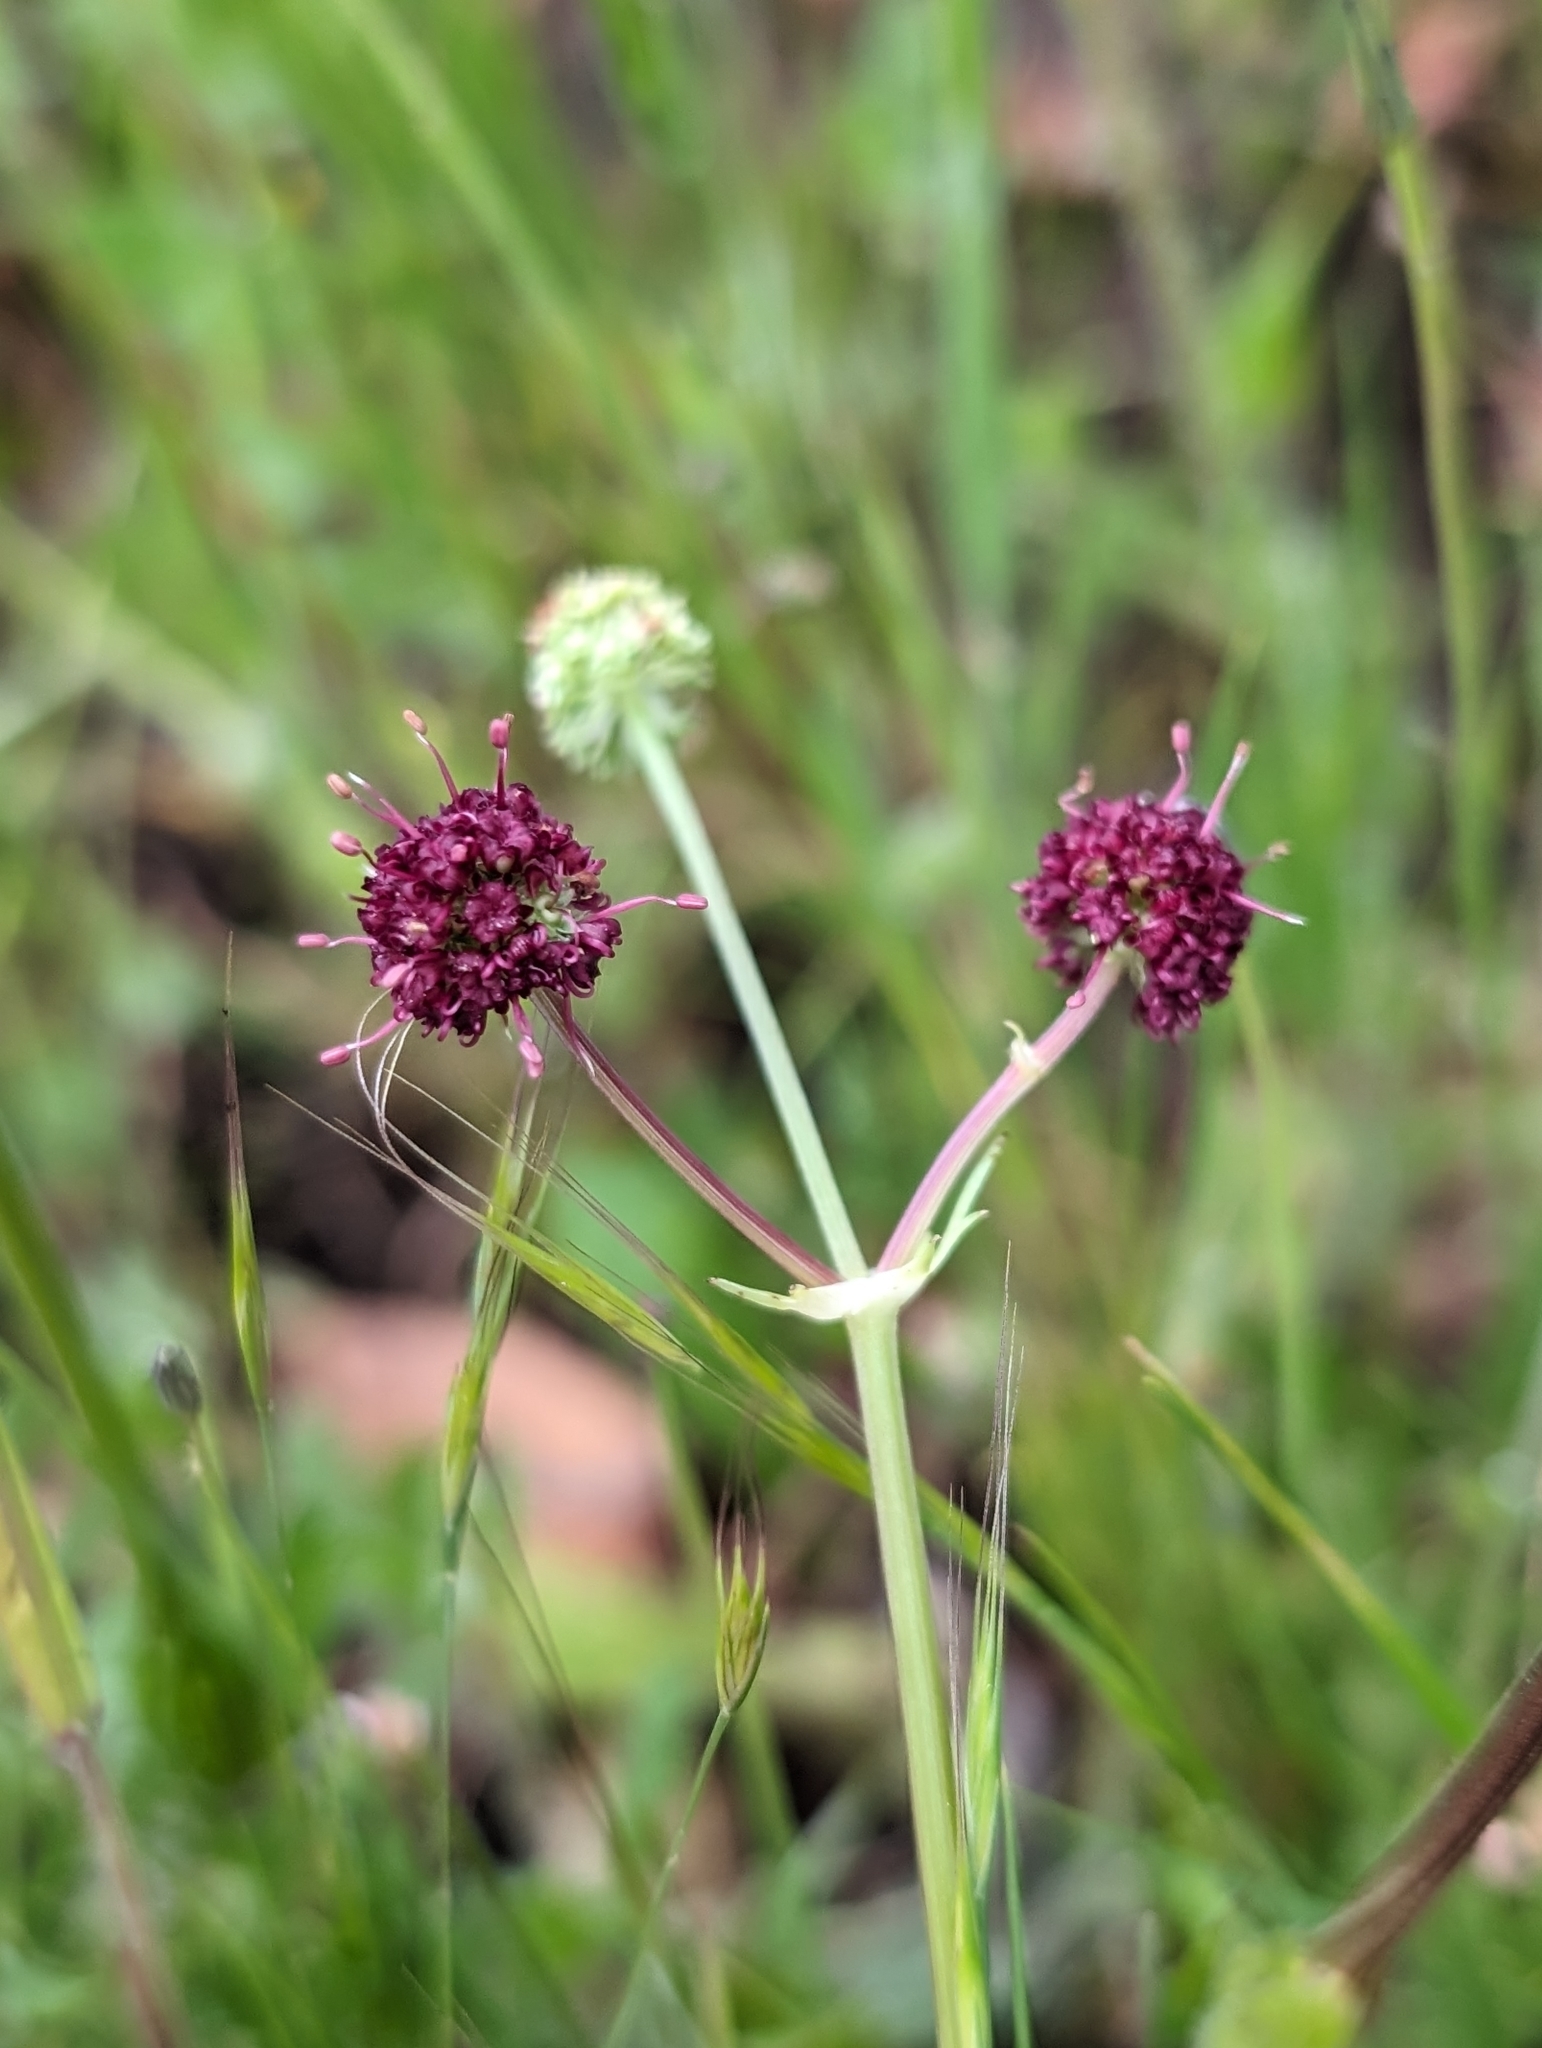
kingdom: Plantae
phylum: Tracheophyta
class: Magnoliopsida
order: Apiales
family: Apiaceae
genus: Sanicula
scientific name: Sanicula bipinnatifida
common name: Shoe-buttons
